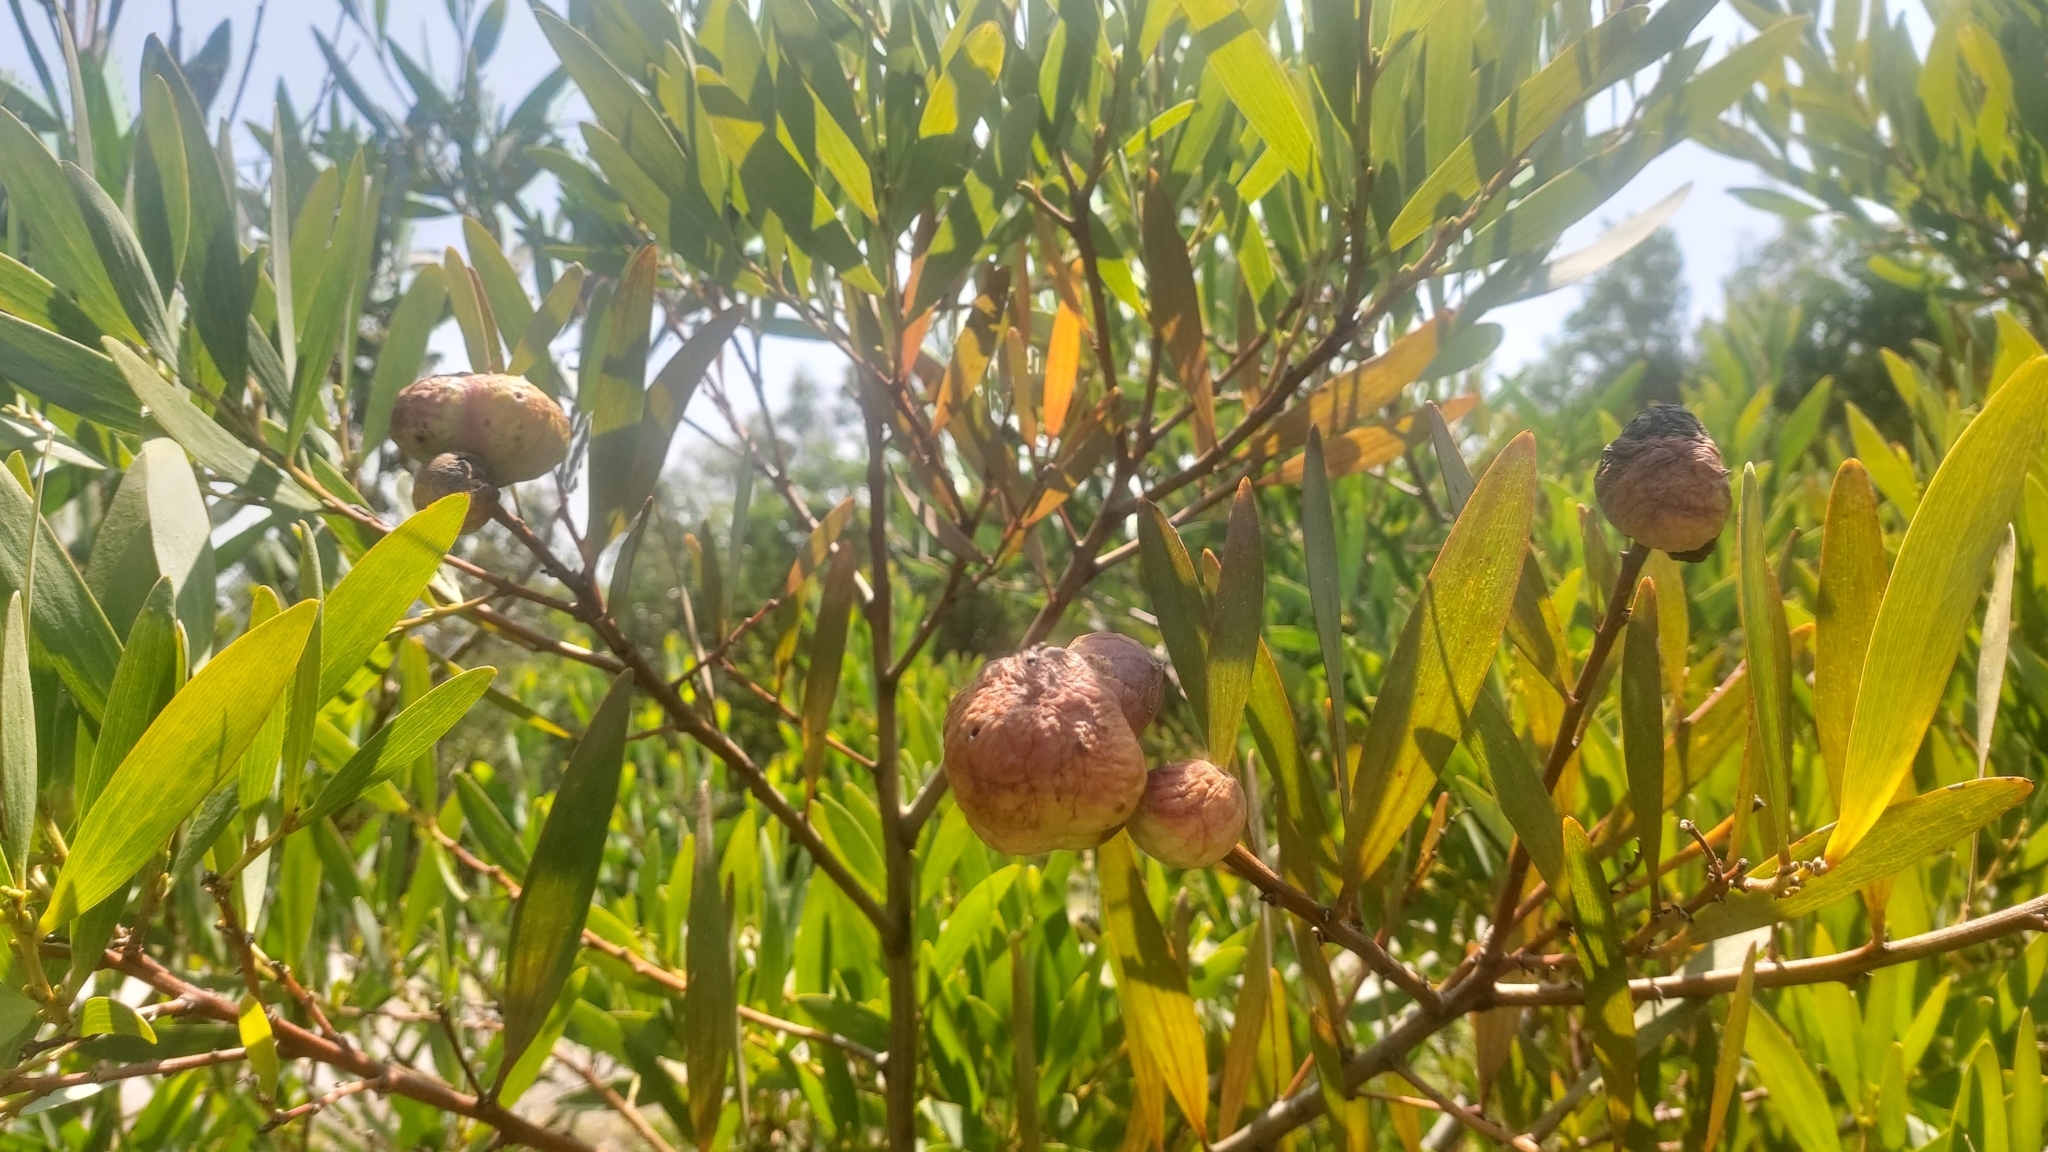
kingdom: Animalia
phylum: Arthropoda
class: Insecta
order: Hymenoptera
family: Pteromalidae
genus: Trichilogaster
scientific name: Trichilogaster acaciaelongifoliae
